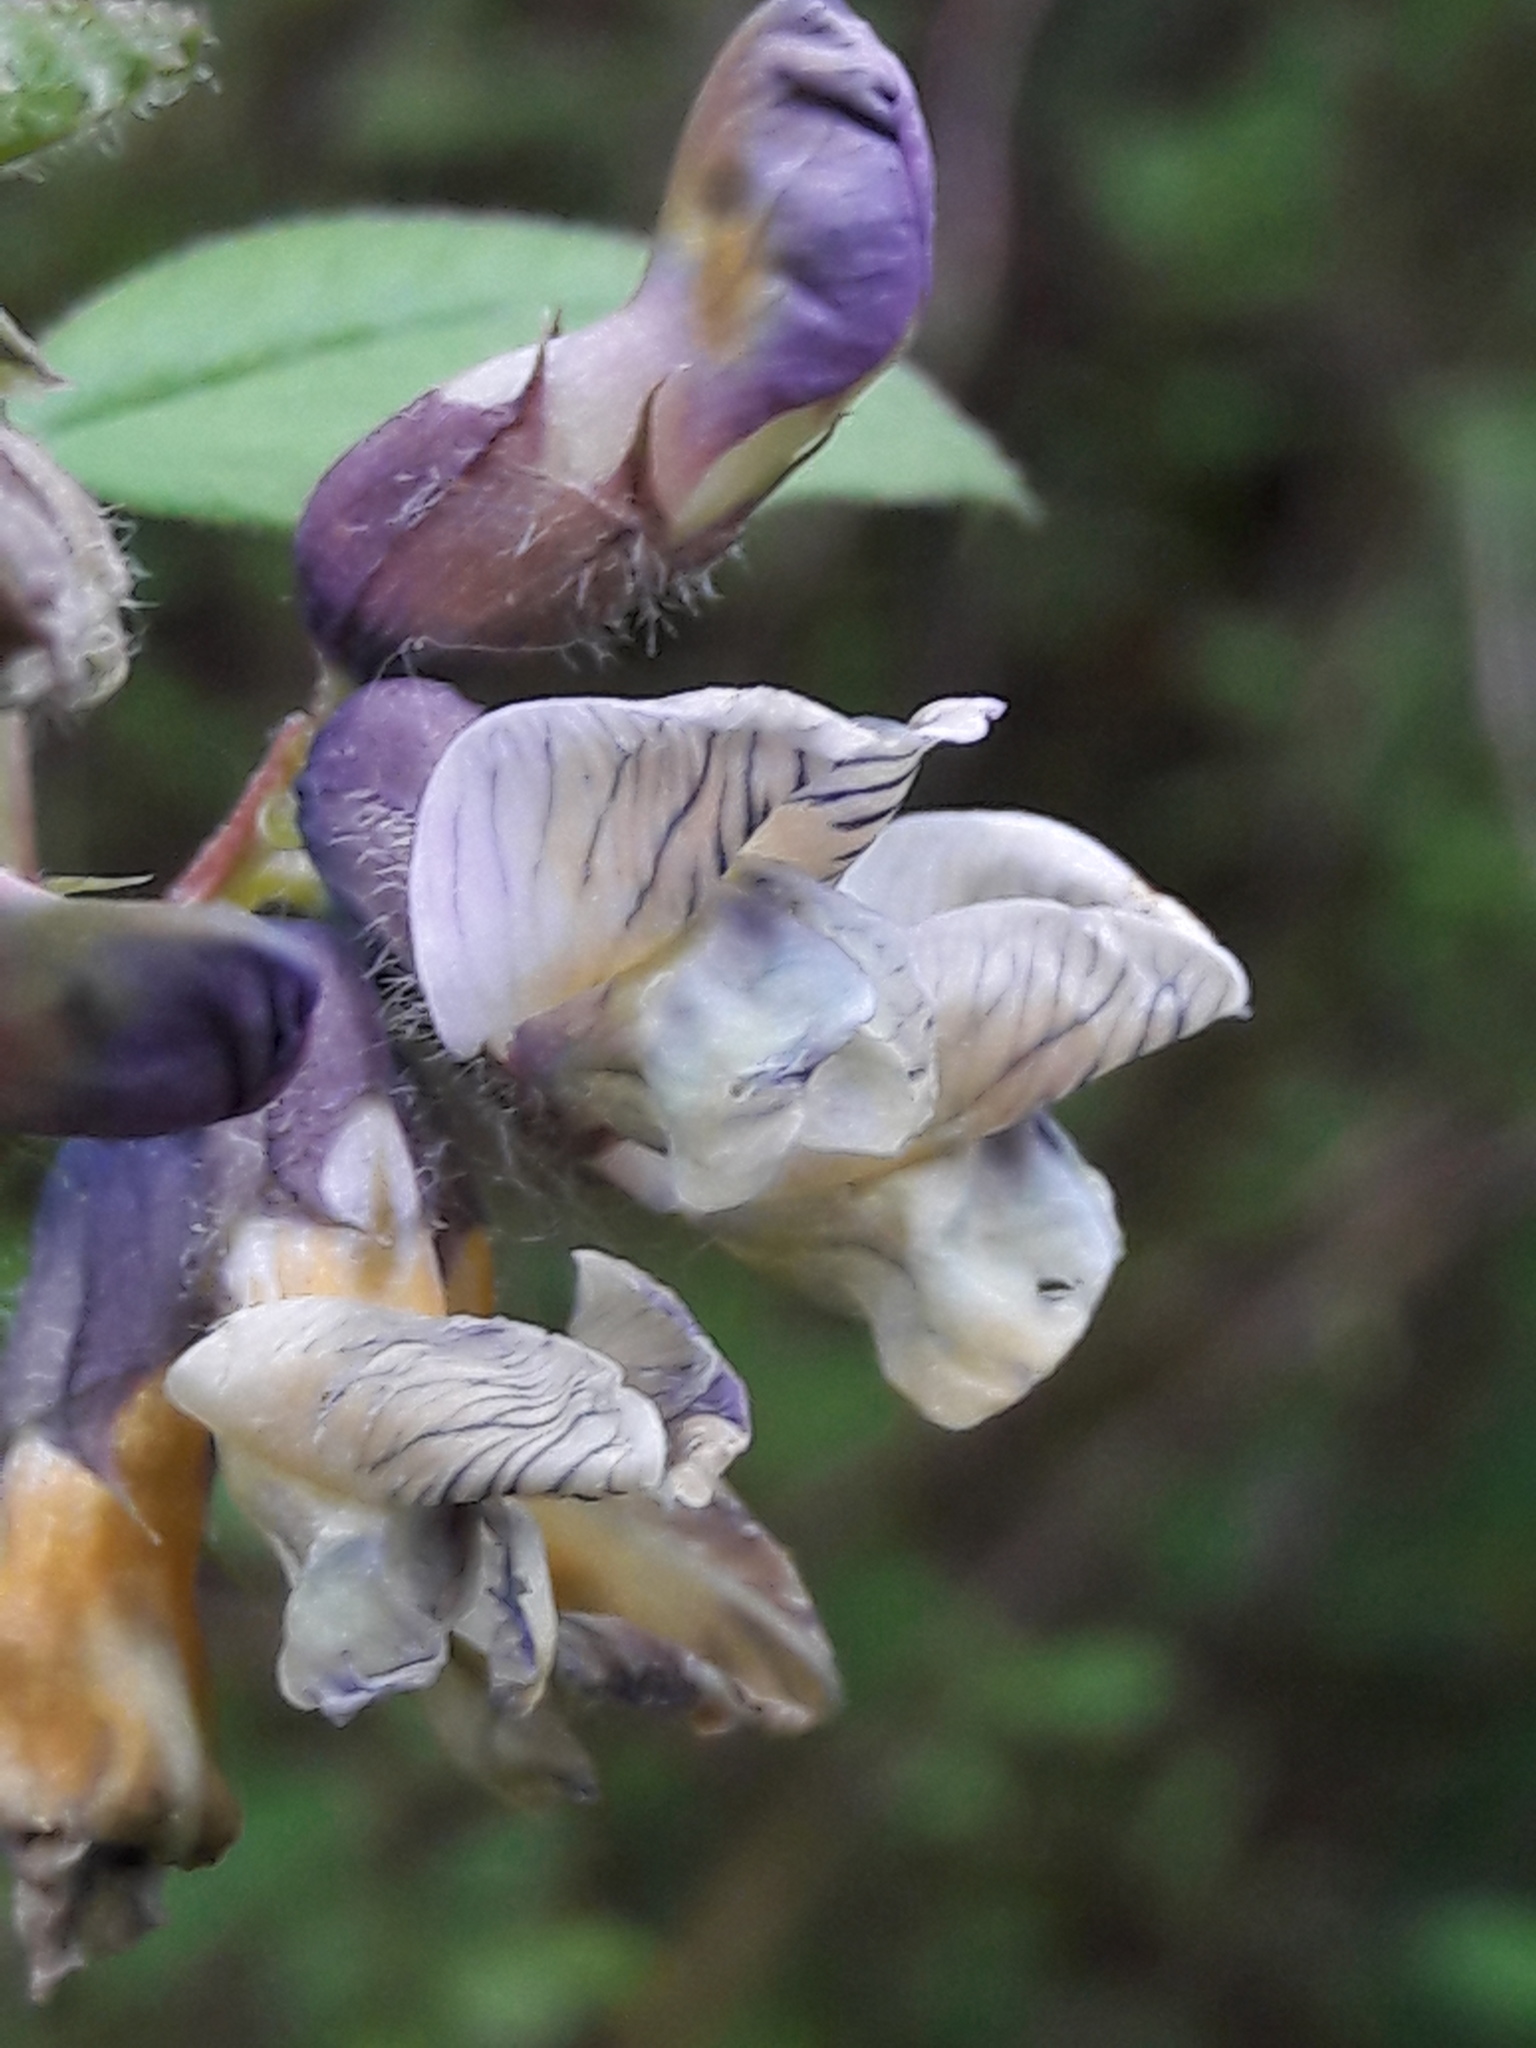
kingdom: Plantae
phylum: Tracheophyta
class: Magnoliopsida
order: Fabales
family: Fabaceae
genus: Vicia
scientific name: Vicia sepium
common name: Bush vetch
